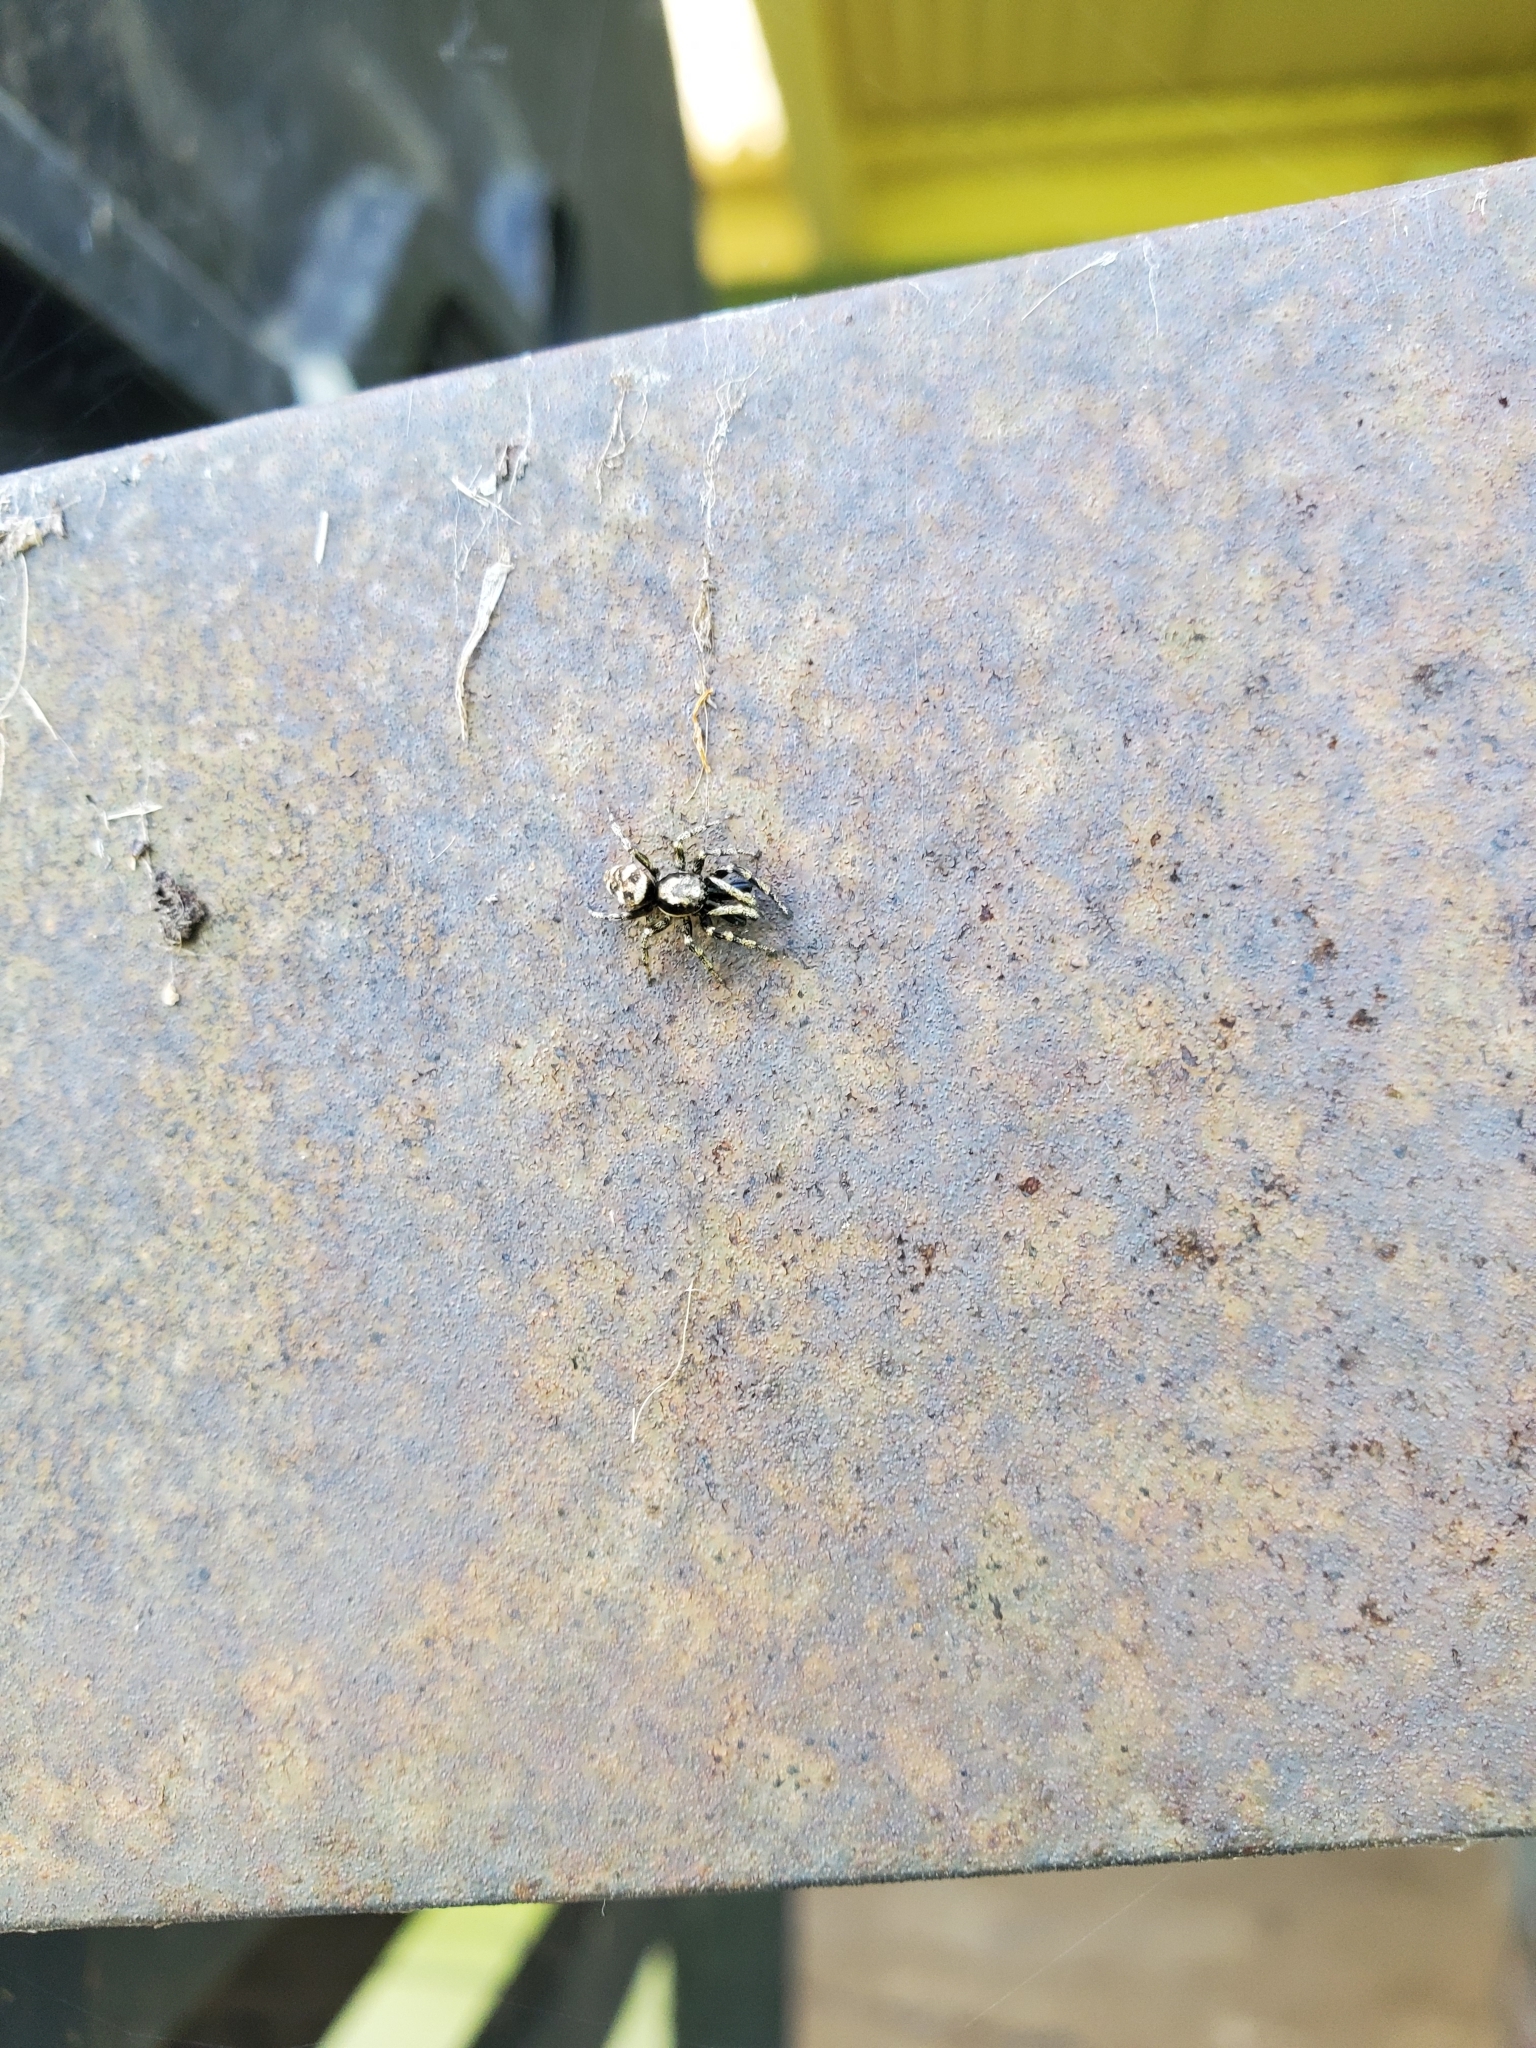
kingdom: Animalia
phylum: Arthropoda
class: Arachnida
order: Araneae
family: Salticidae
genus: Salticus
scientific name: Salticus scenicus
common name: Zebra jumper
